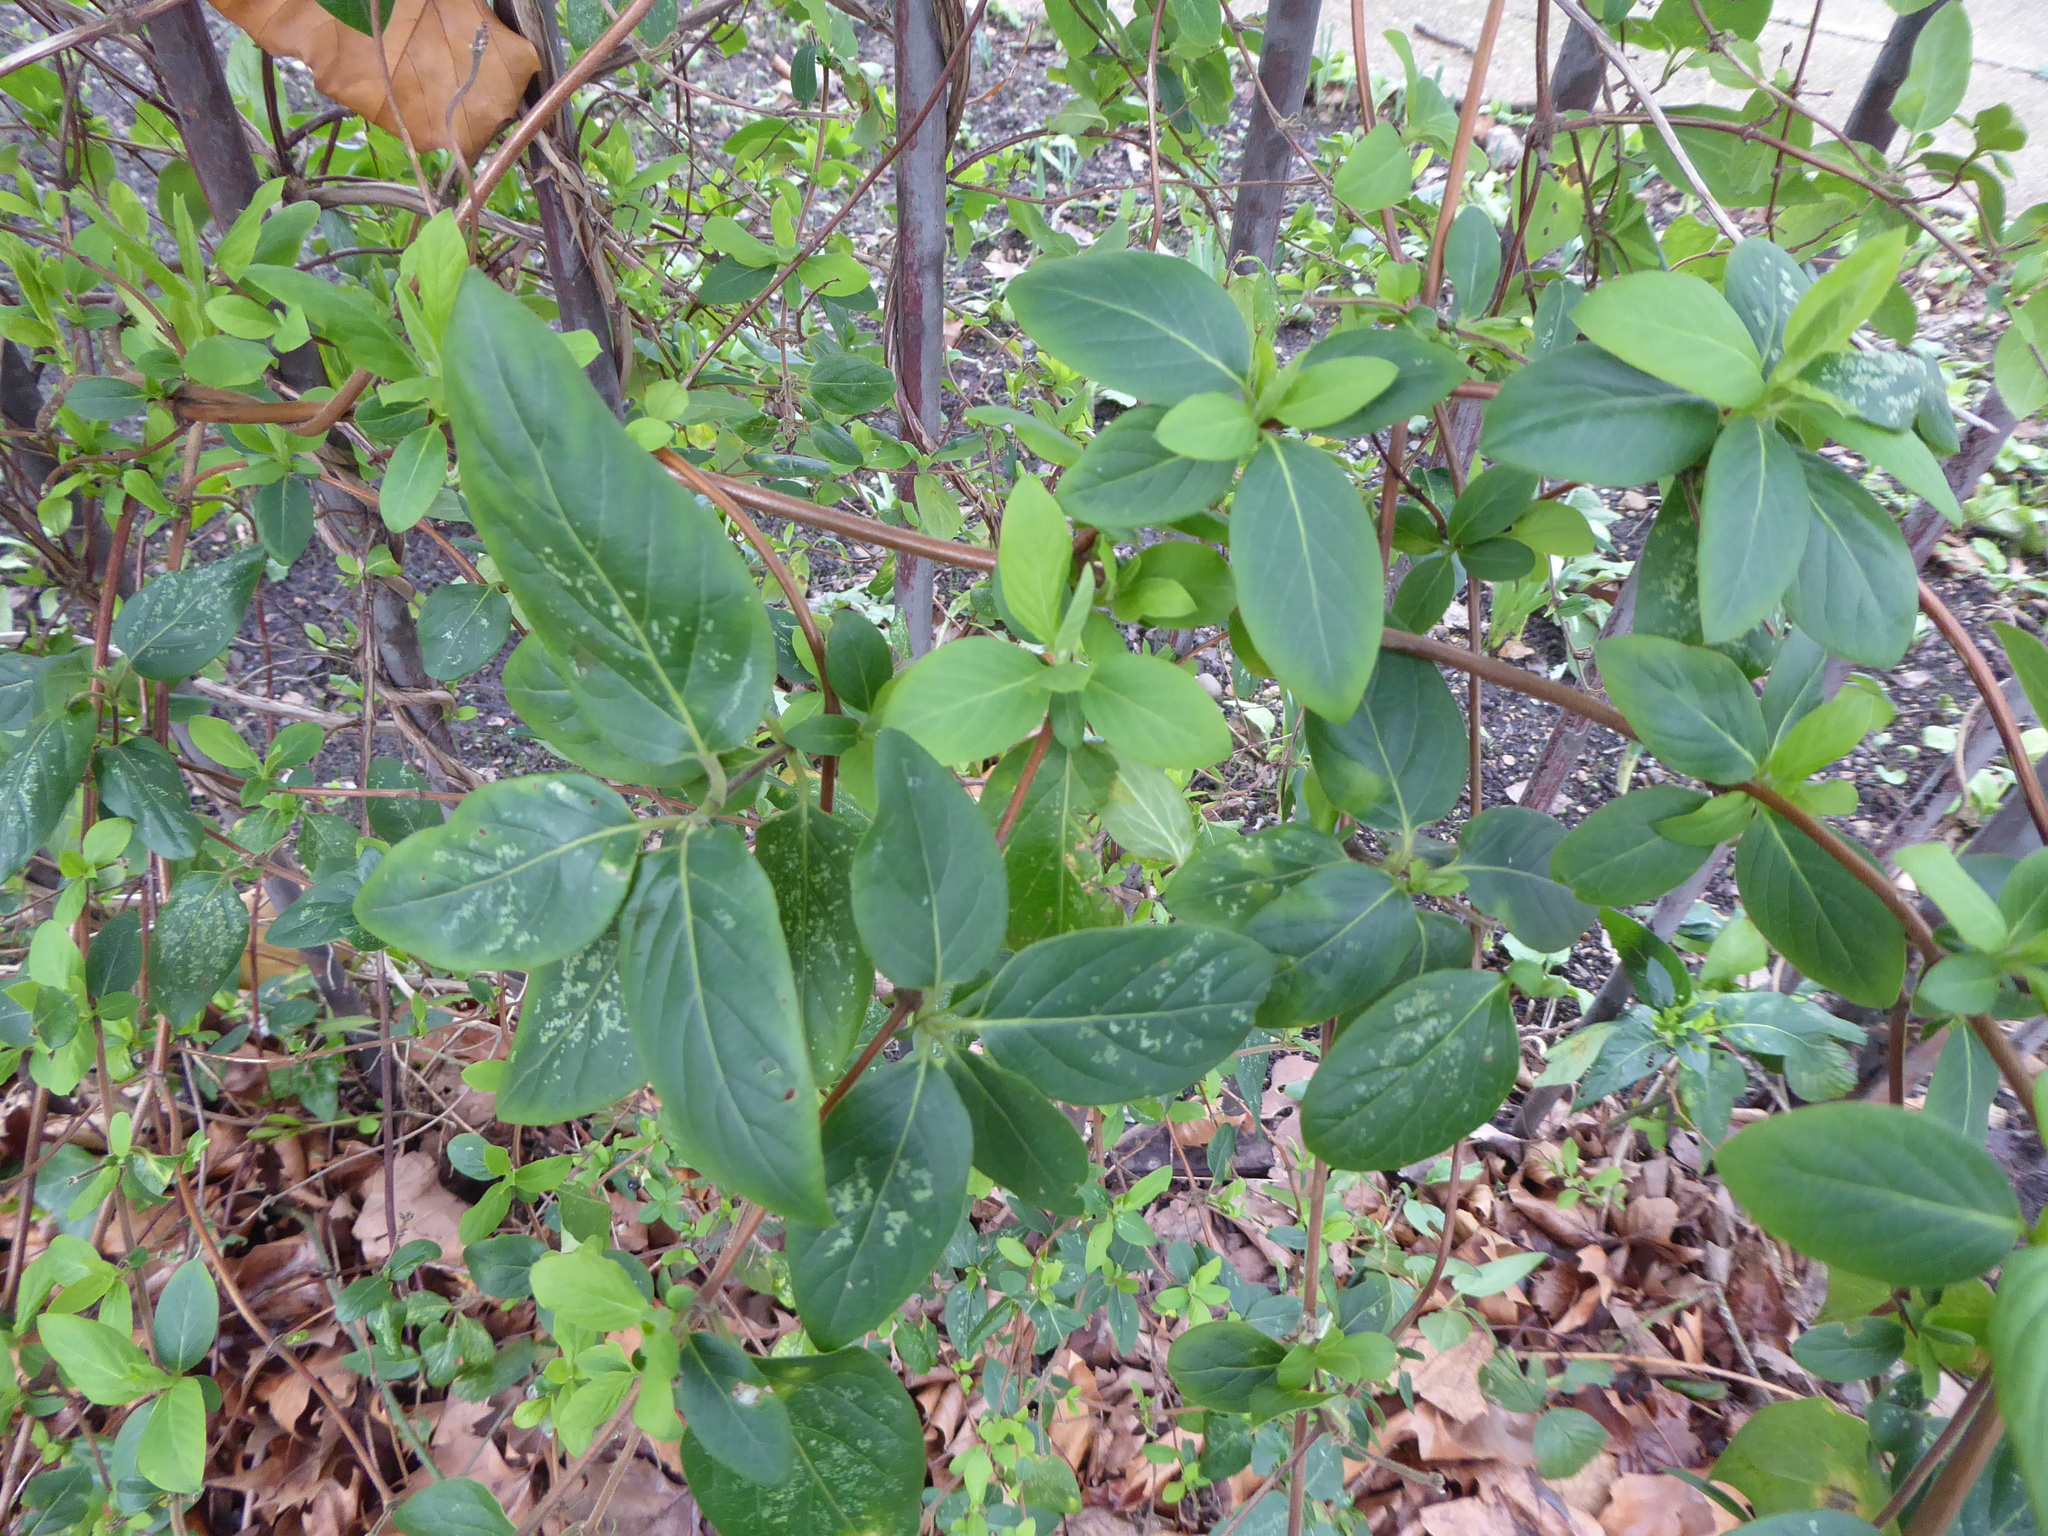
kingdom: Plantae
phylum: Tracheophyta
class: Magnoliopsida
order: Dipsacales
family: Caprifoliaceae
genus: Lonicera
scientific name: Lonicera japonica
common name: Japanese honeysuckle
